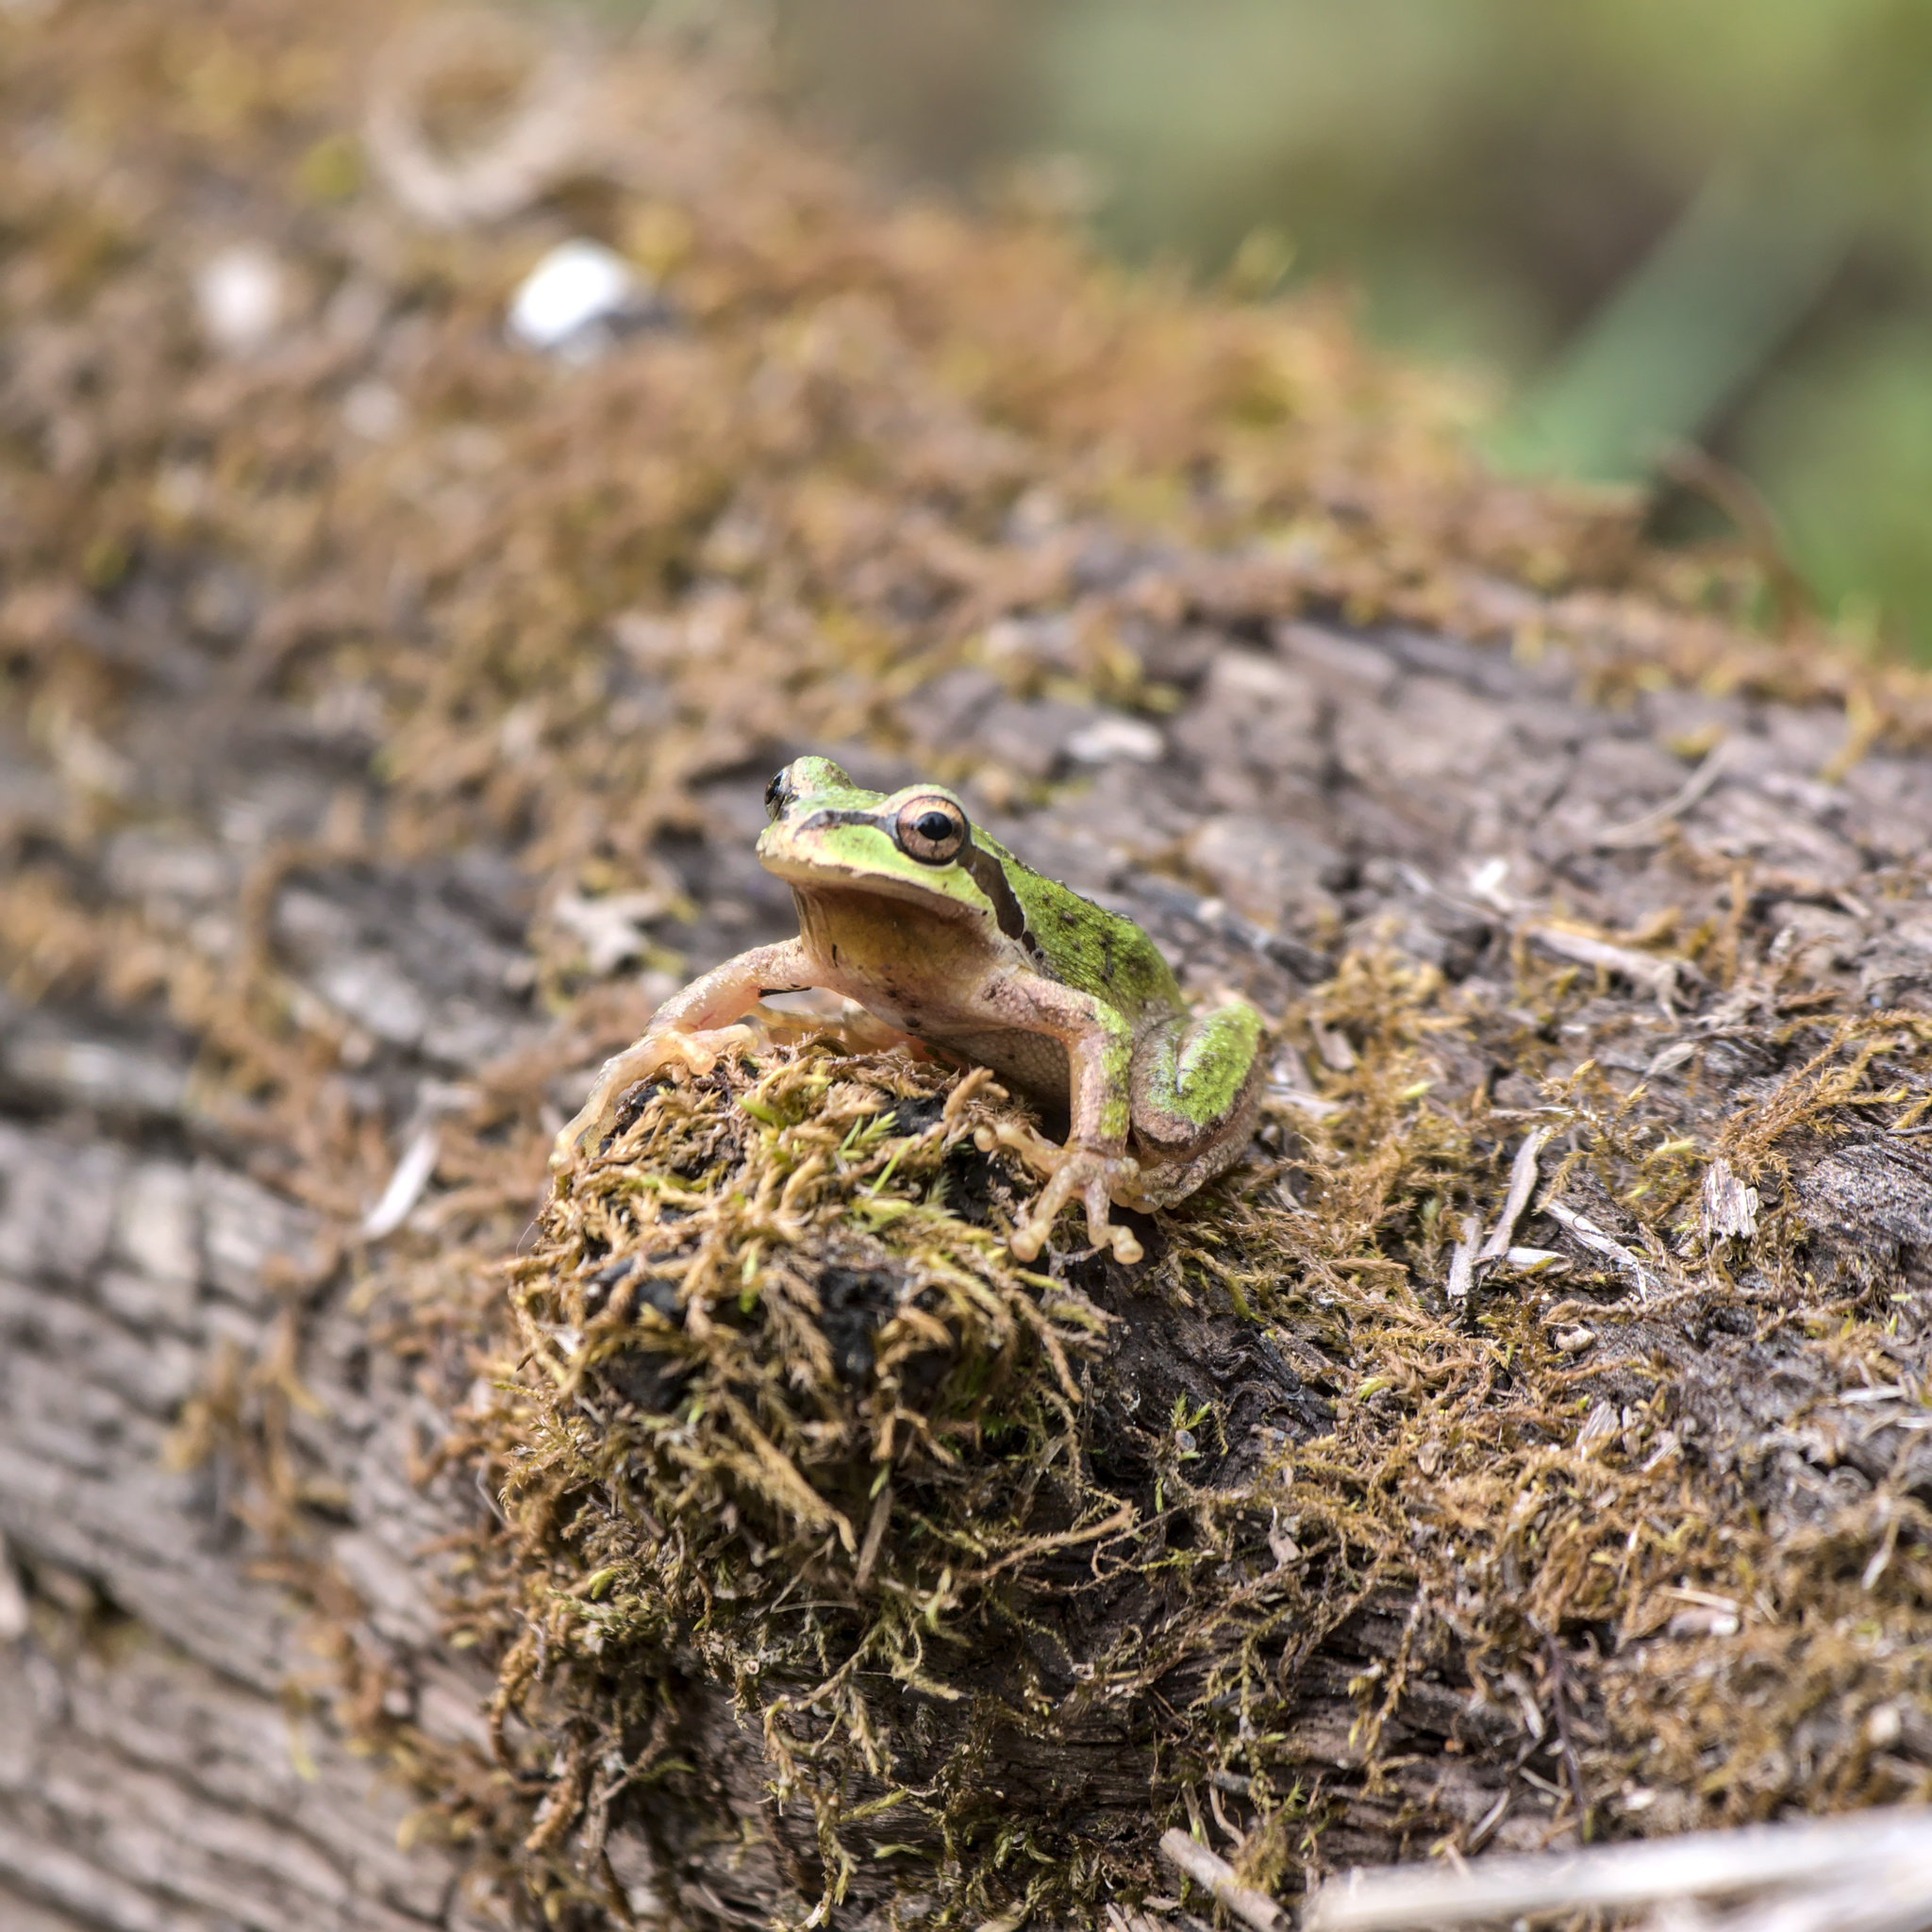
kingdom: Animalia
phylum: Chordata
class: Amphibia
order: Anura
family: Hylidae
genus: Pseudacris
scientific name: Pseudacris regilla
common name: Pacific chorus frog
